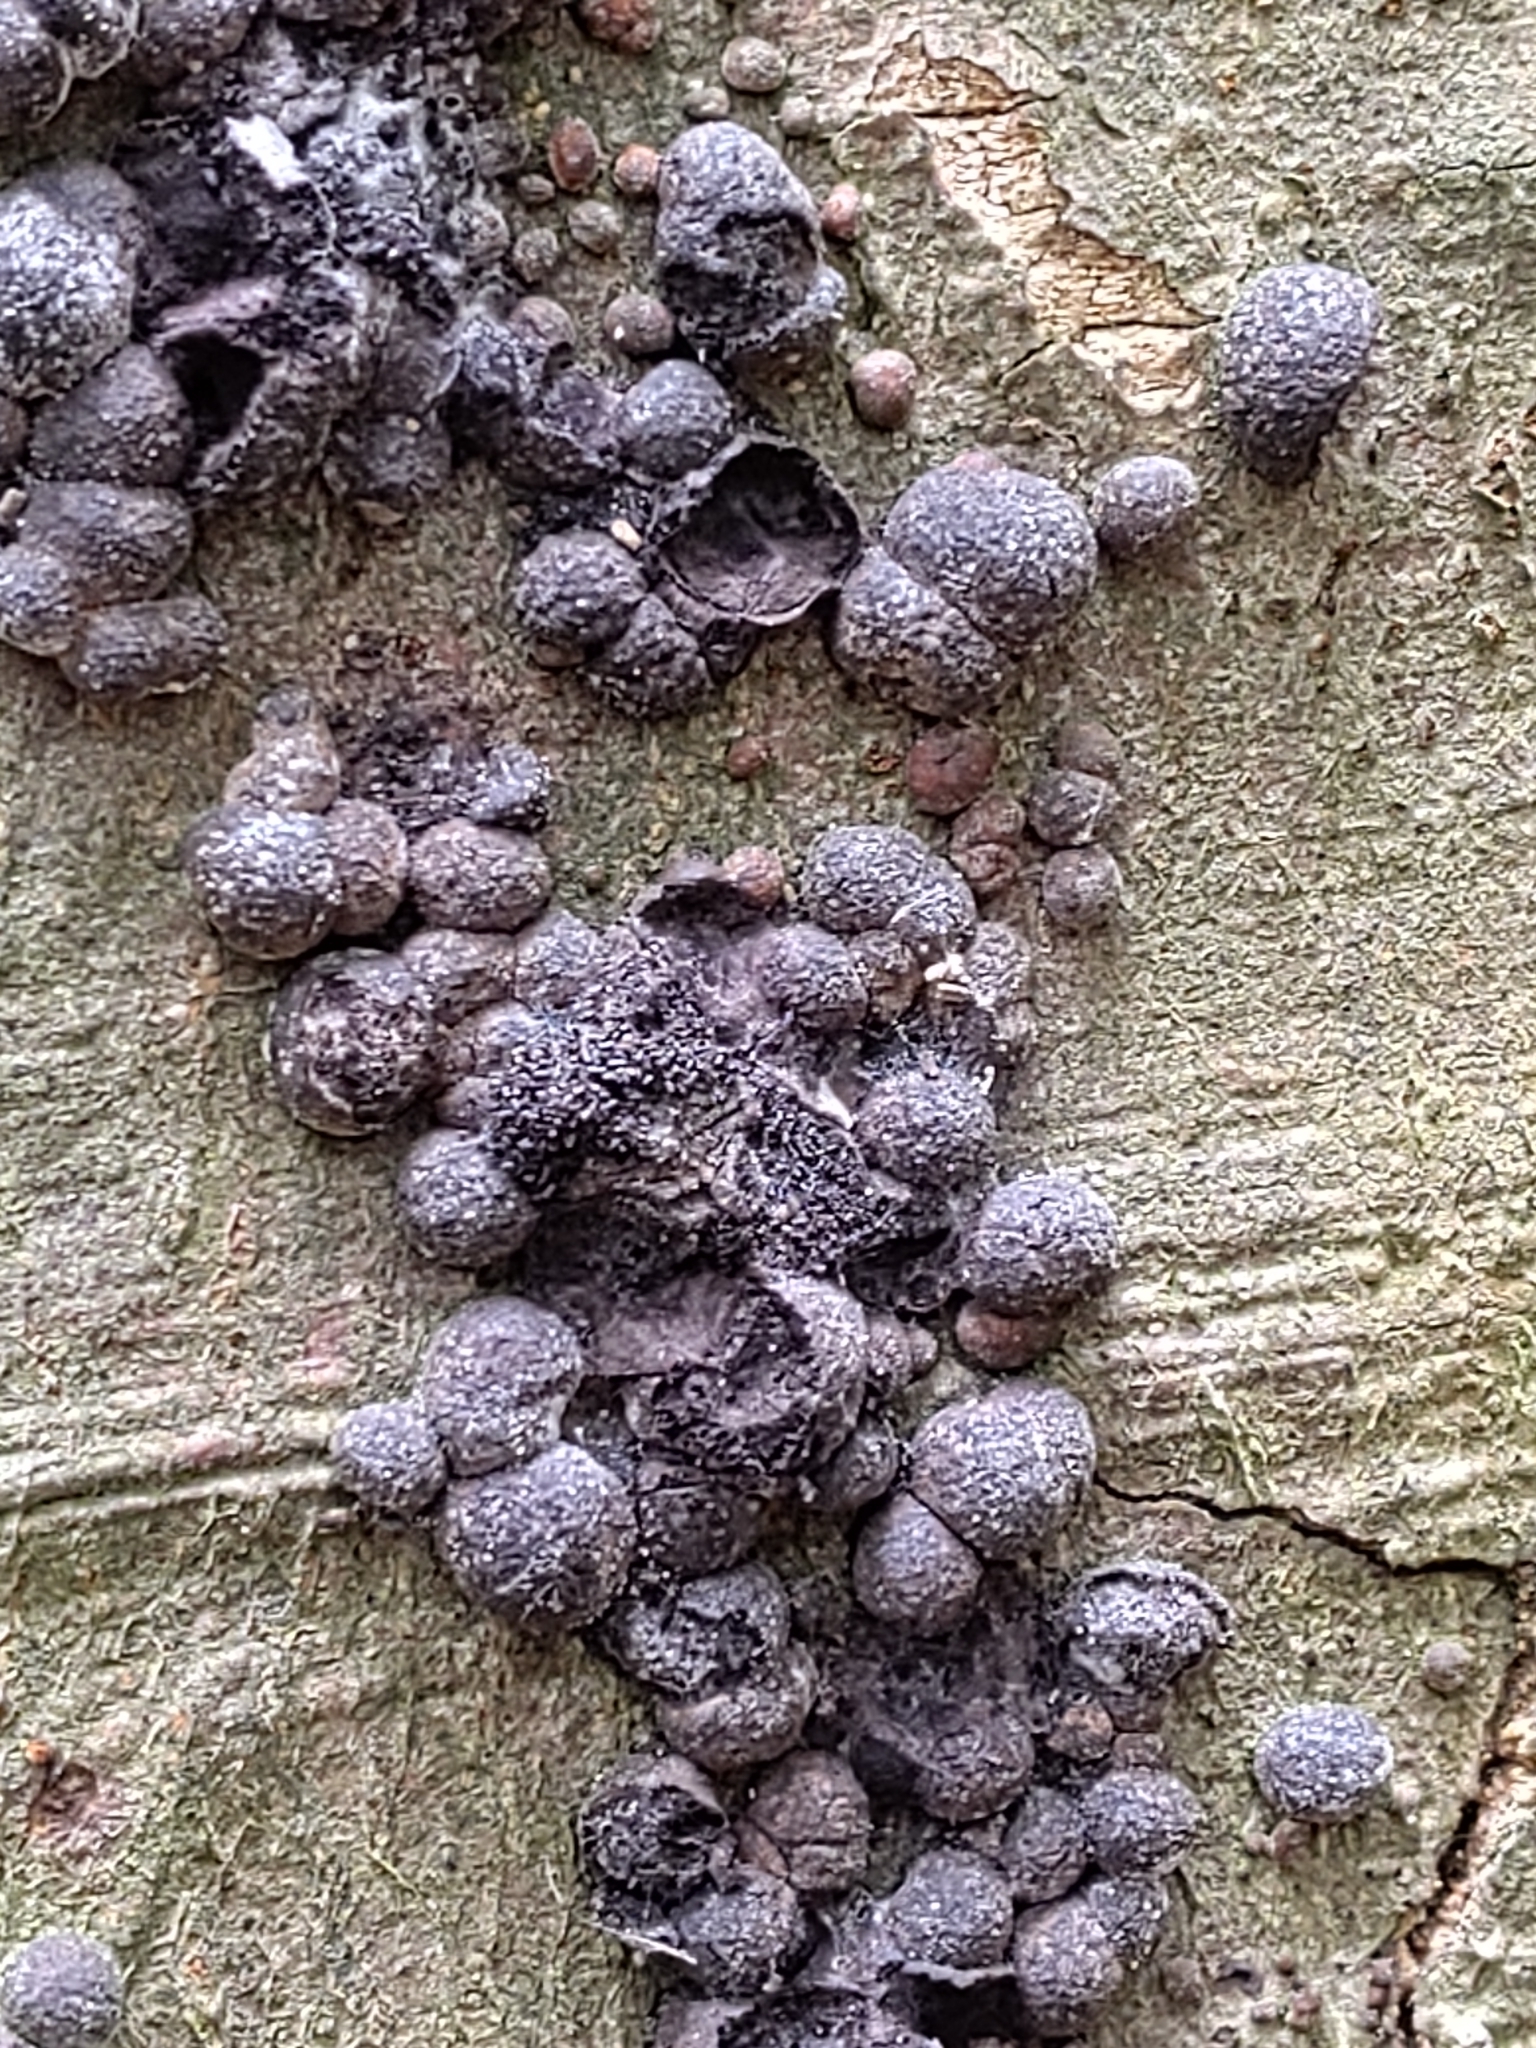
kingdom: Fungi
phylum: Ascomycota
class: Sordariomycetes
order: Xylariales
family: Hypoxylaceae
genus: Hypoxylon
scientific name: Hypoxylon fragiforme
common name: Beech woodwart
